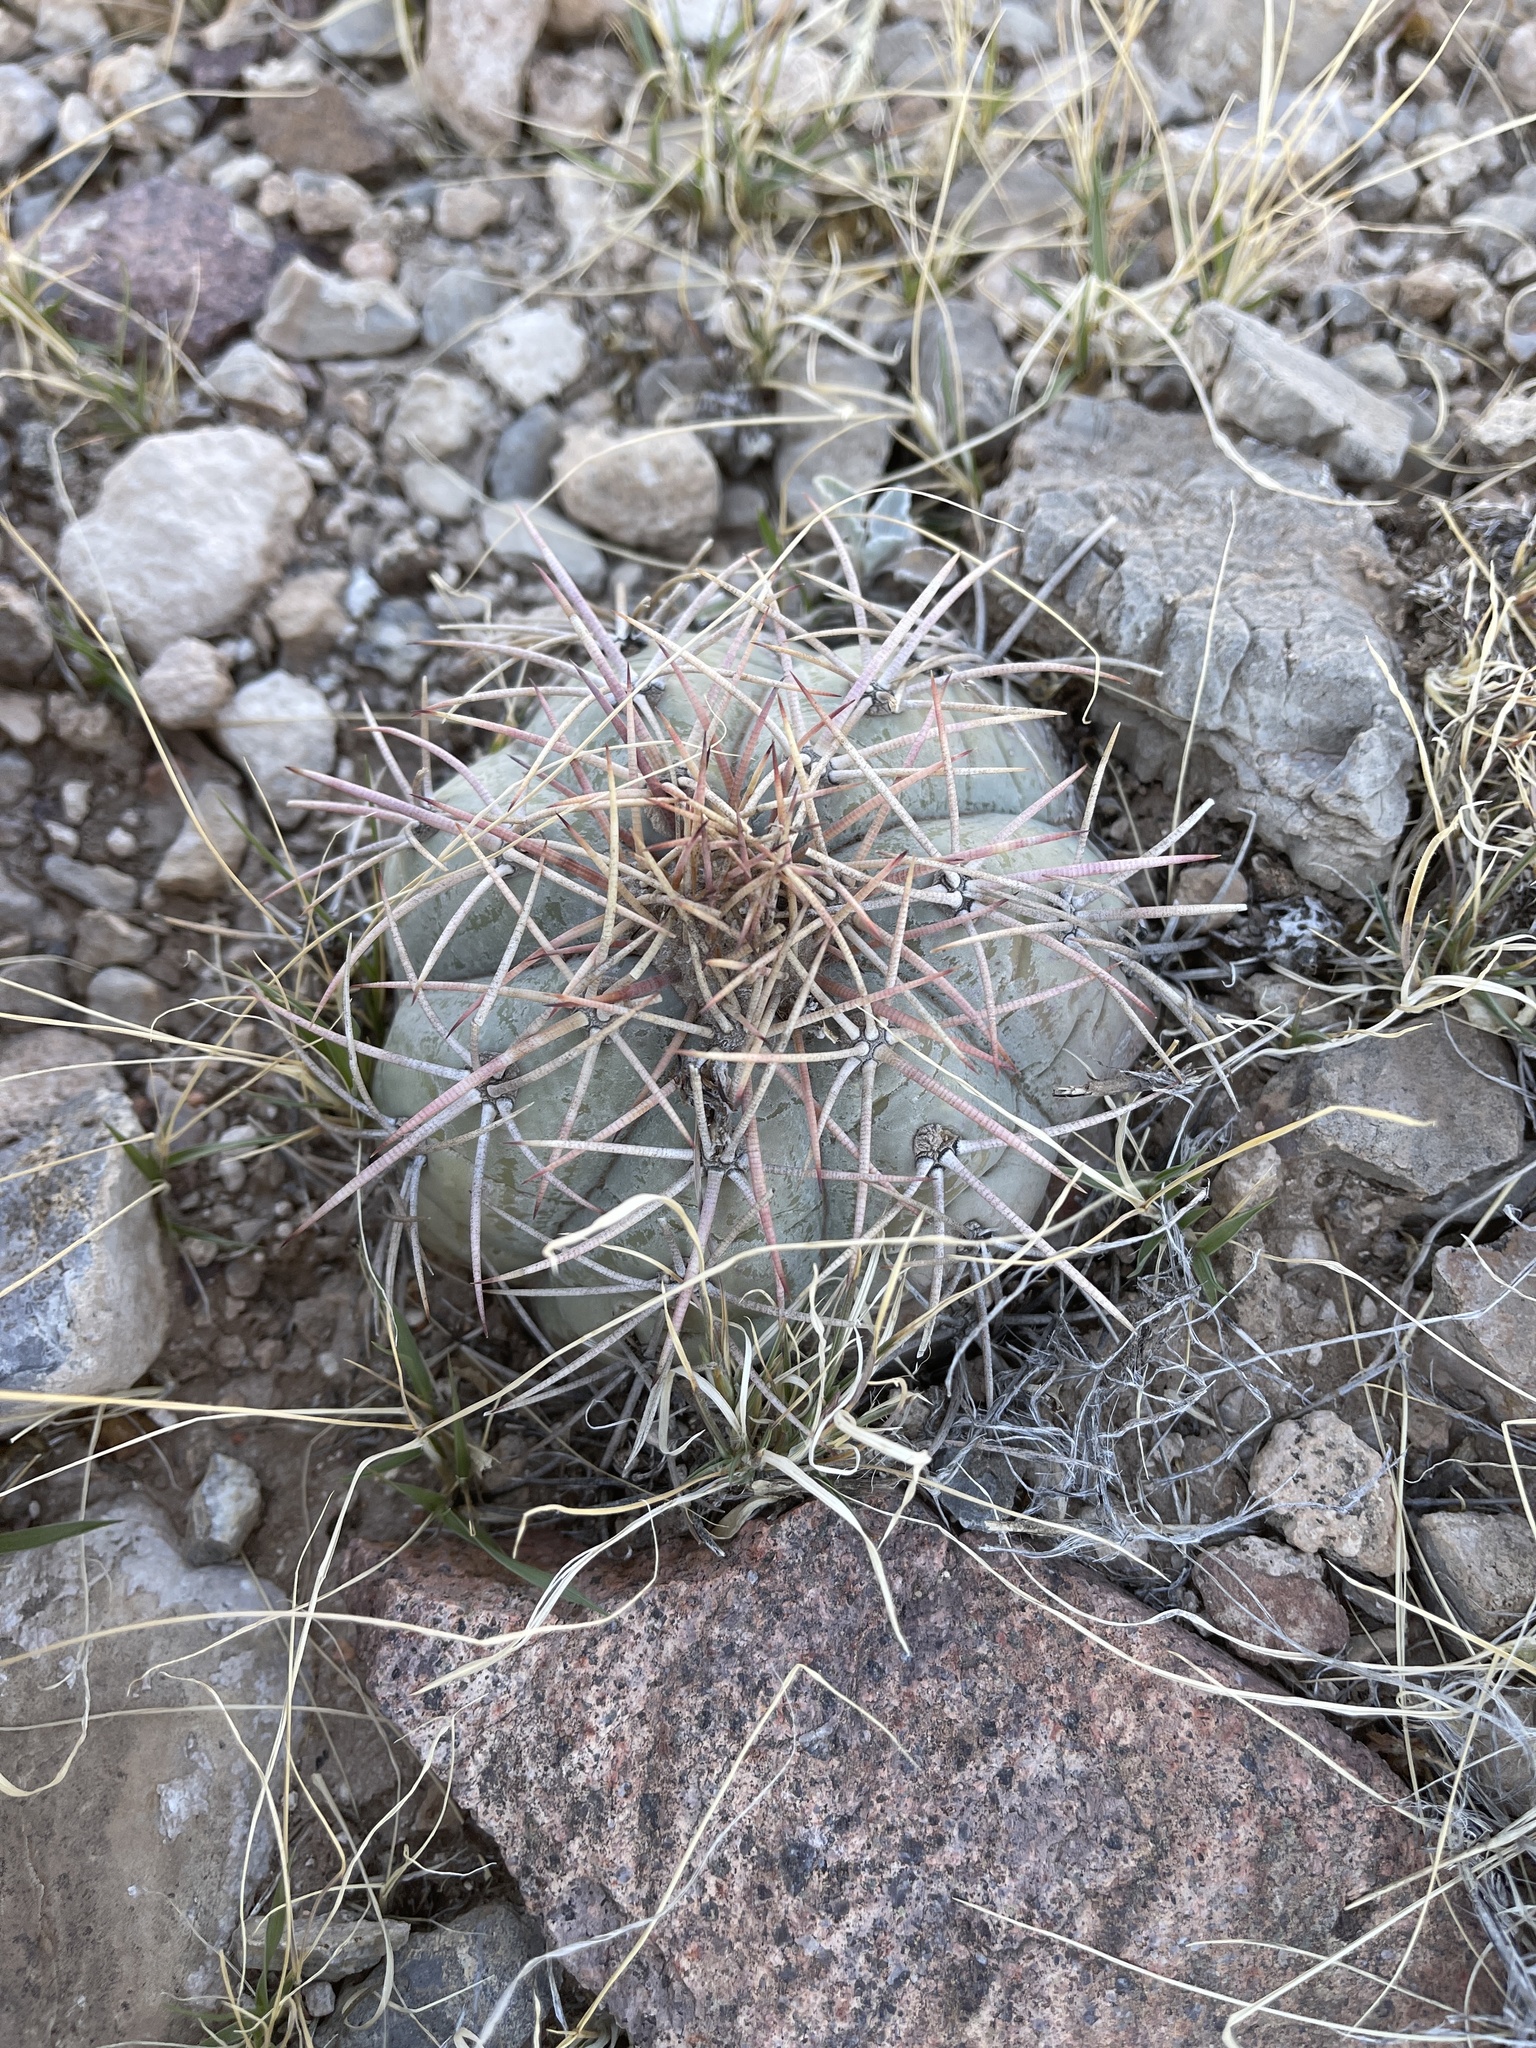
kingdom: Plantae
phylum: Tracheophyta
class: Magnoliopsida
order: Caryophyllales
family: Cactaceae
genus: Echinocactus
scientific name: Echinocactus horizonthalonius
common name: Devilshead
